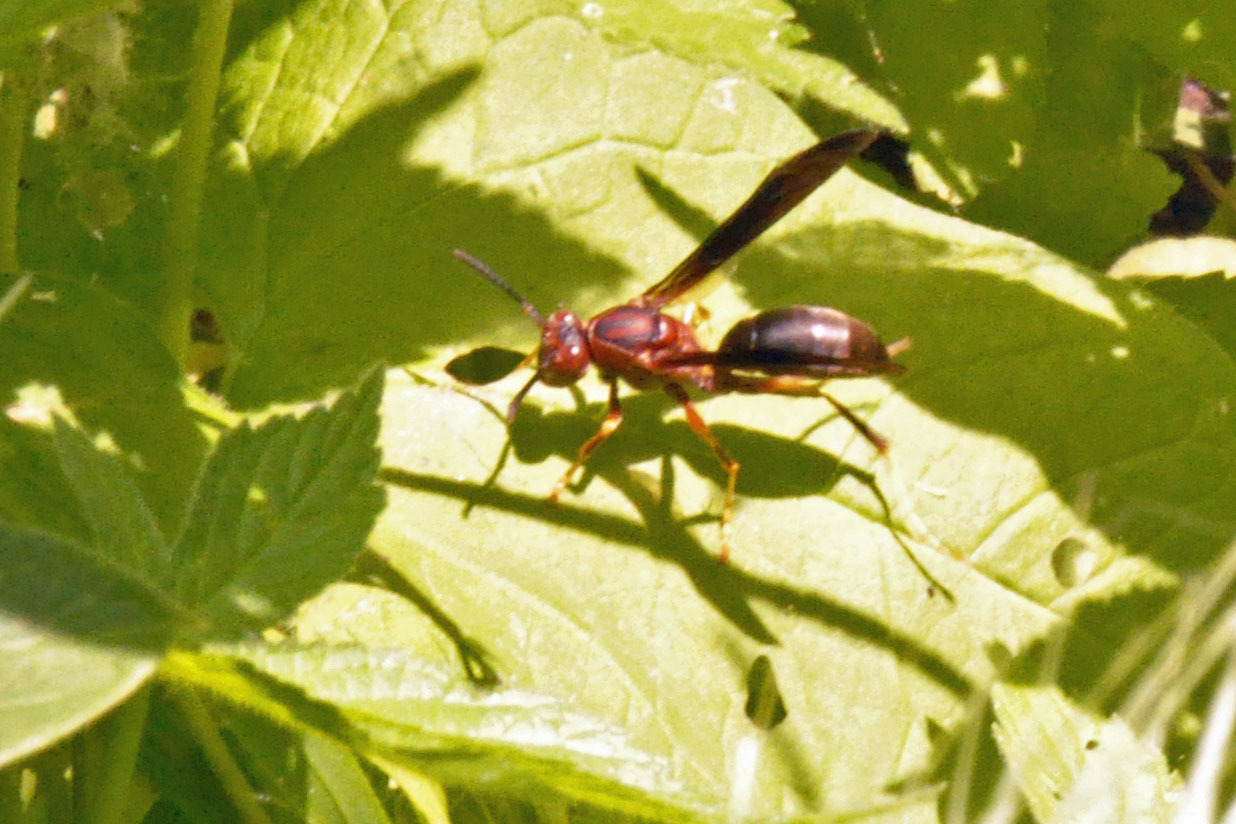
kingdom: Animalia
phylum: Arthropoda
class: Insecta
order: Hymenoptera
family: Eumenidae
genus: Polistes
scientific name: Polistes metricus
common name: Metric paper wasp
